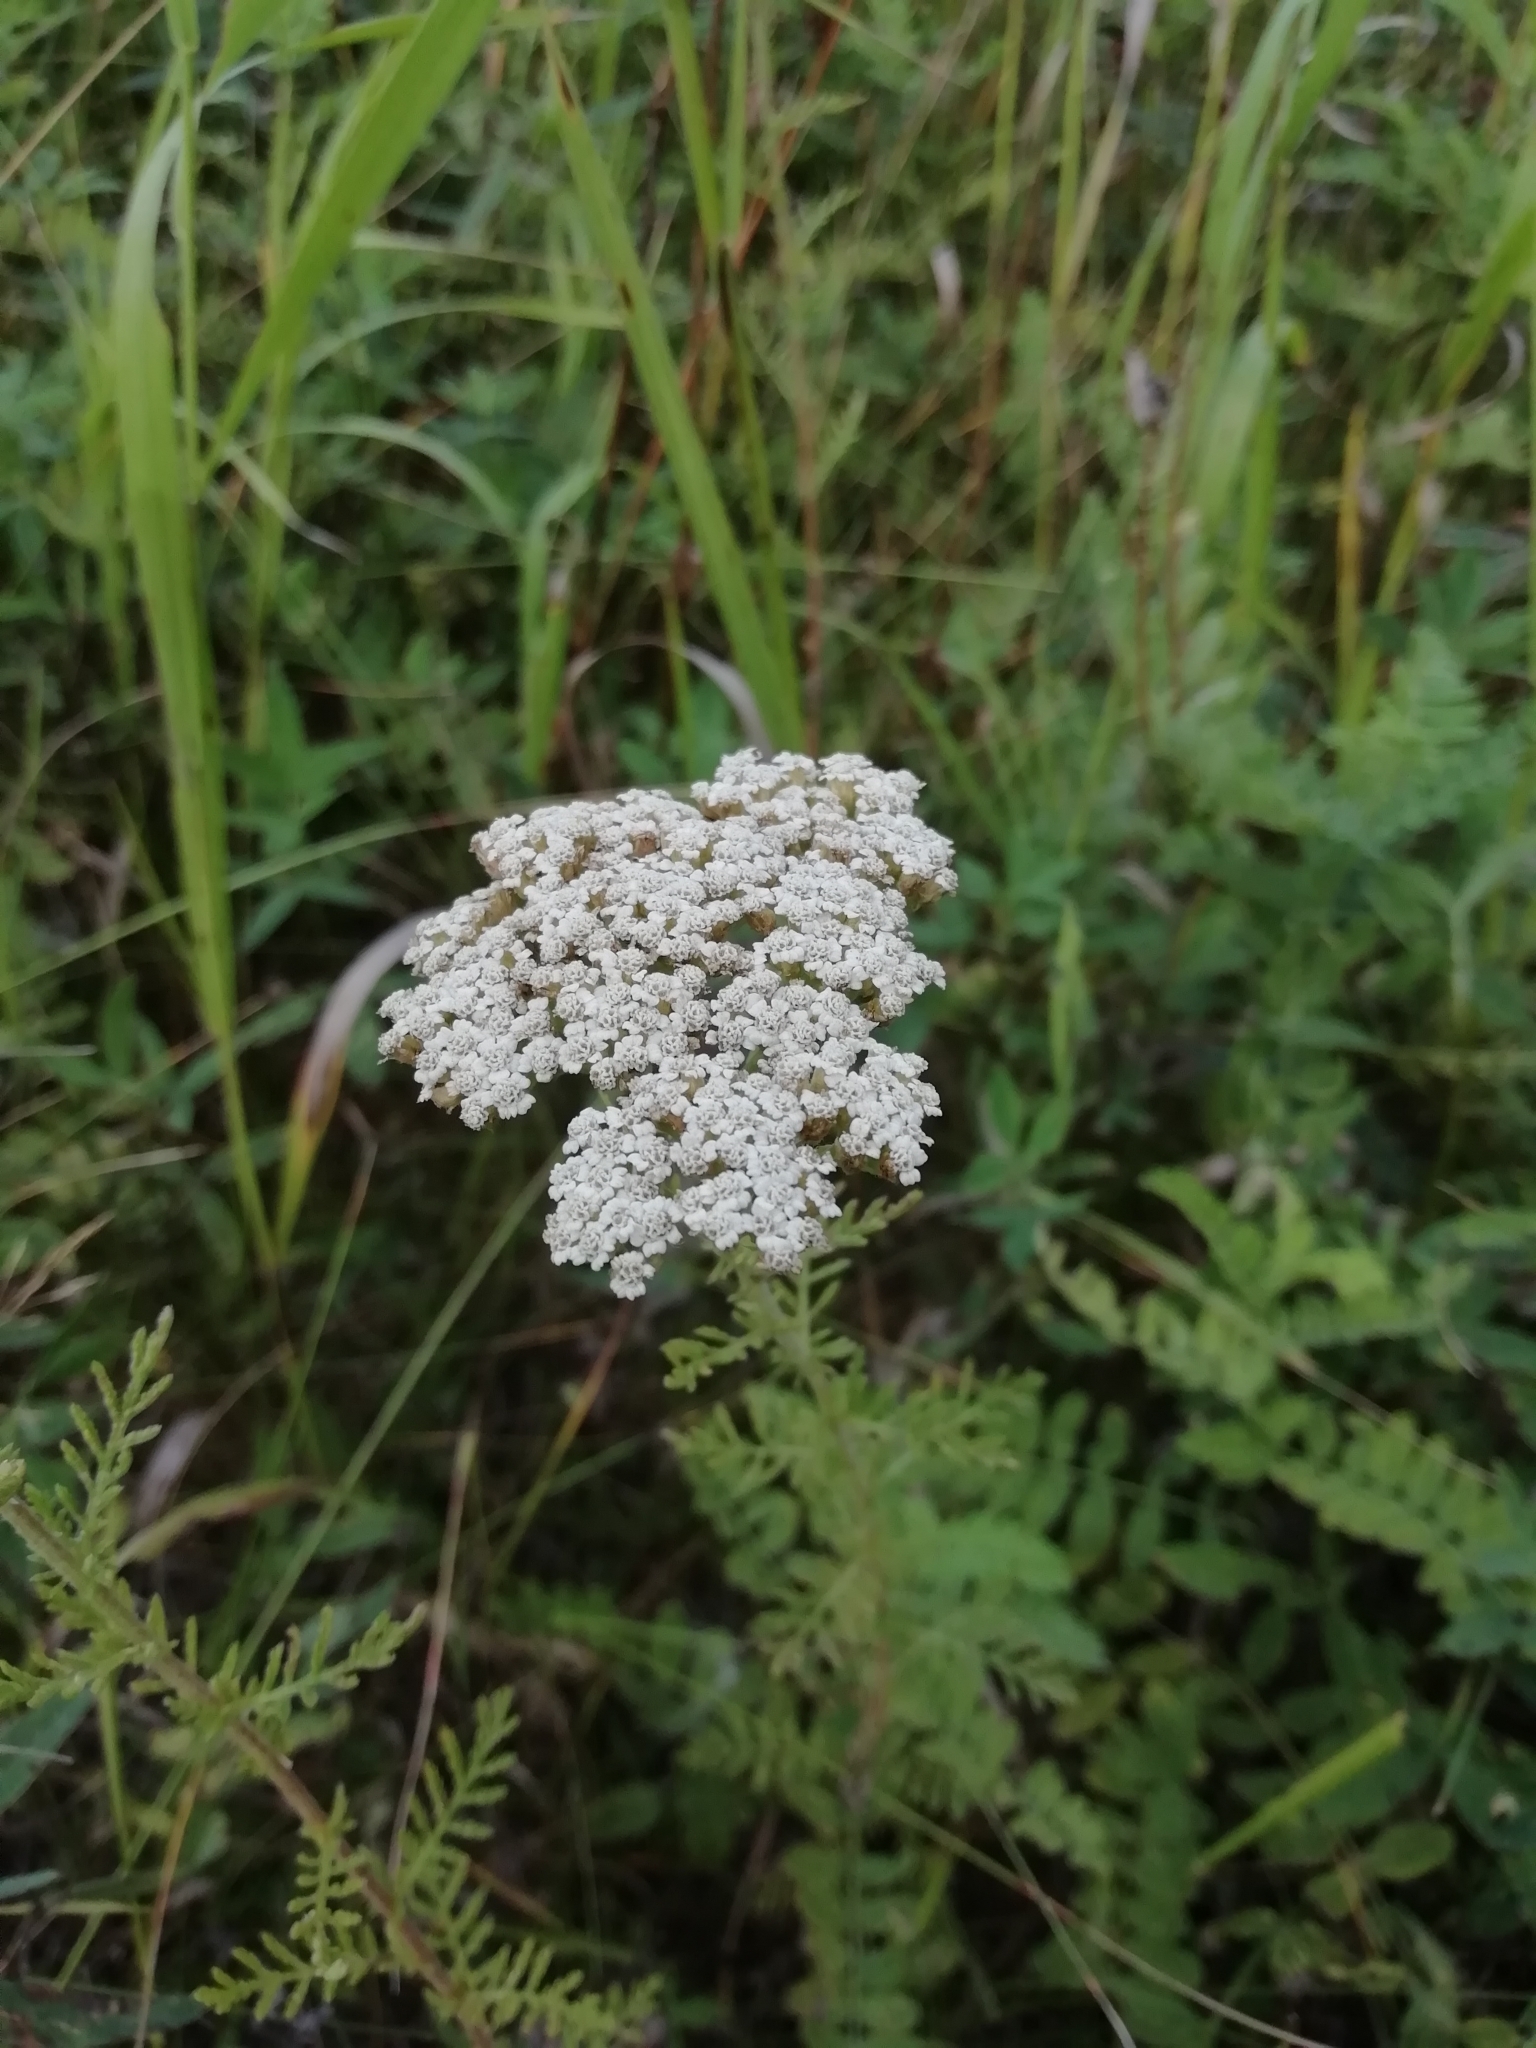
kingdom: Plantae
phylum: Tracheophyta
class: Magnoliopsida
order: Asterales
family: Asteraceae
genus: Achillea
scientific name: Achillea nobilis
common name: Noble yarrow
